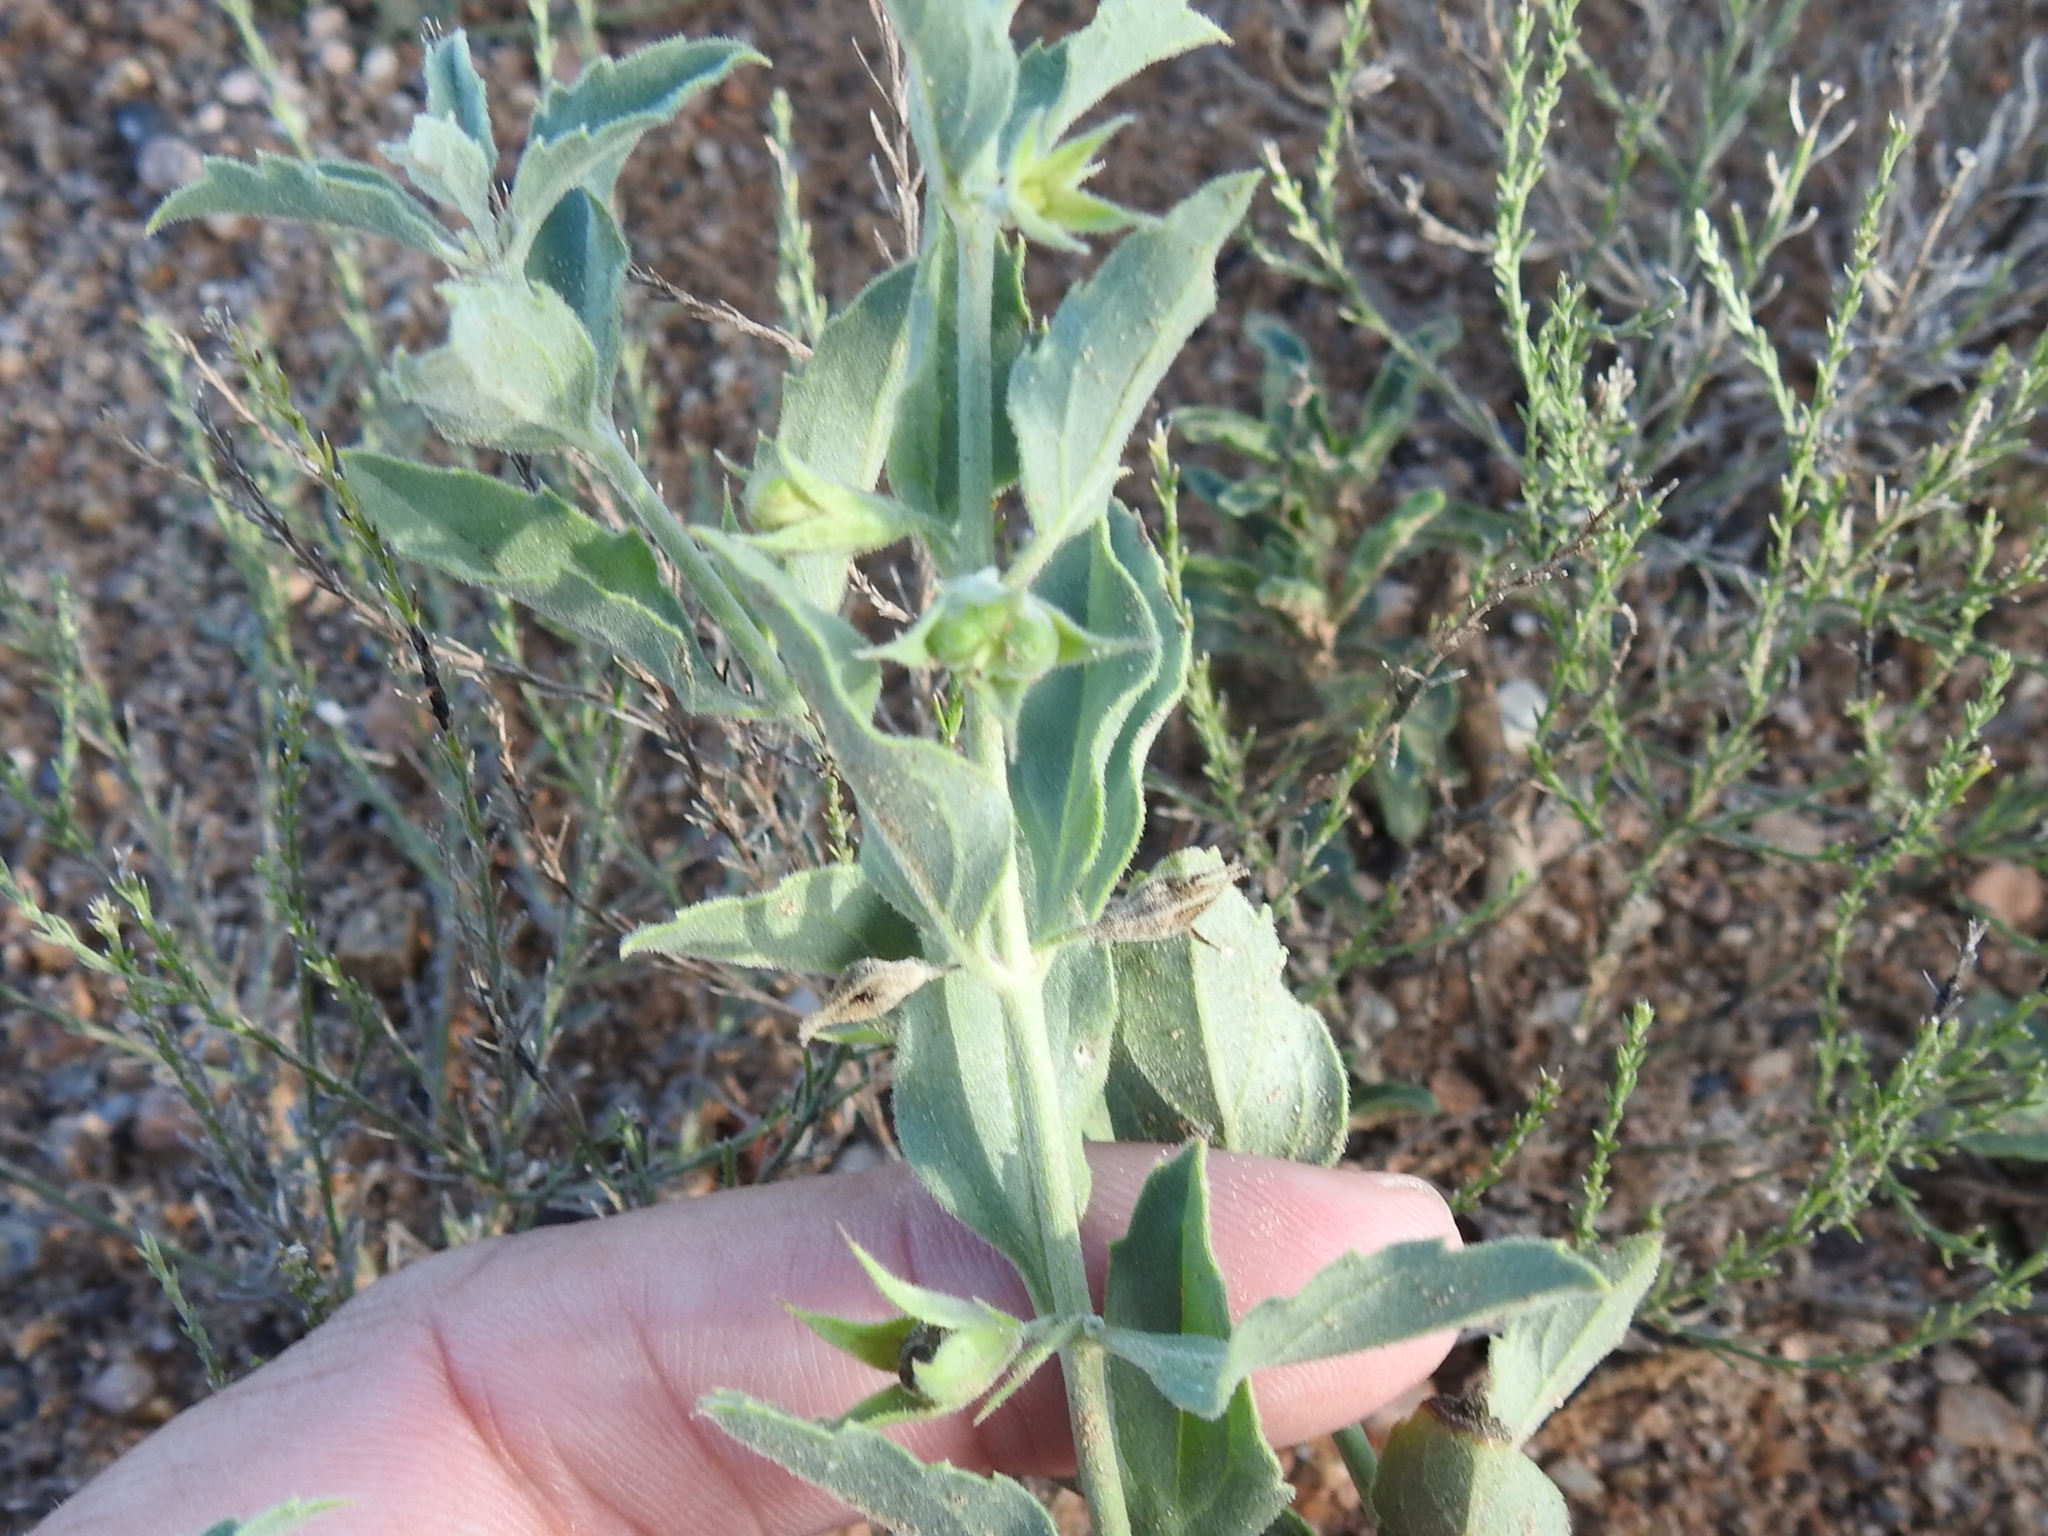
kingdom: Plantae
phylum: Tracheophyta
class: Magnoliopsida
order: Lamiales
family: Lamiaceae
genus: Tetraclea
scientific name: Tetraclea coulteri
